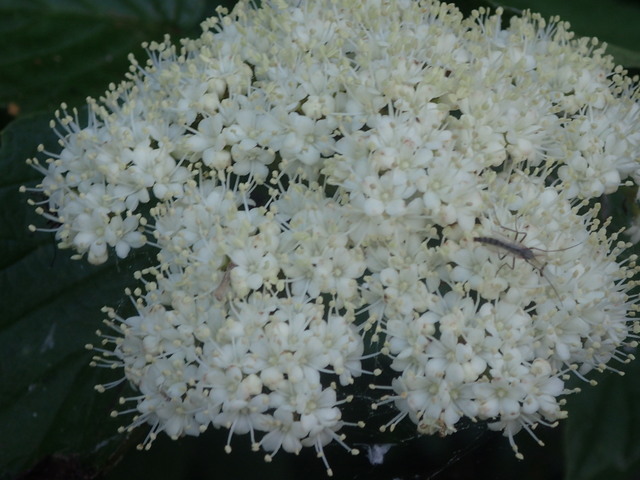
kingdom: Plantae
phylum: Tracheophyta
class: Magnoliopsida
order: Dipsacales
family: Viburnaceae
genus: Viburnum
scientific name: Viburnum scabrellum
